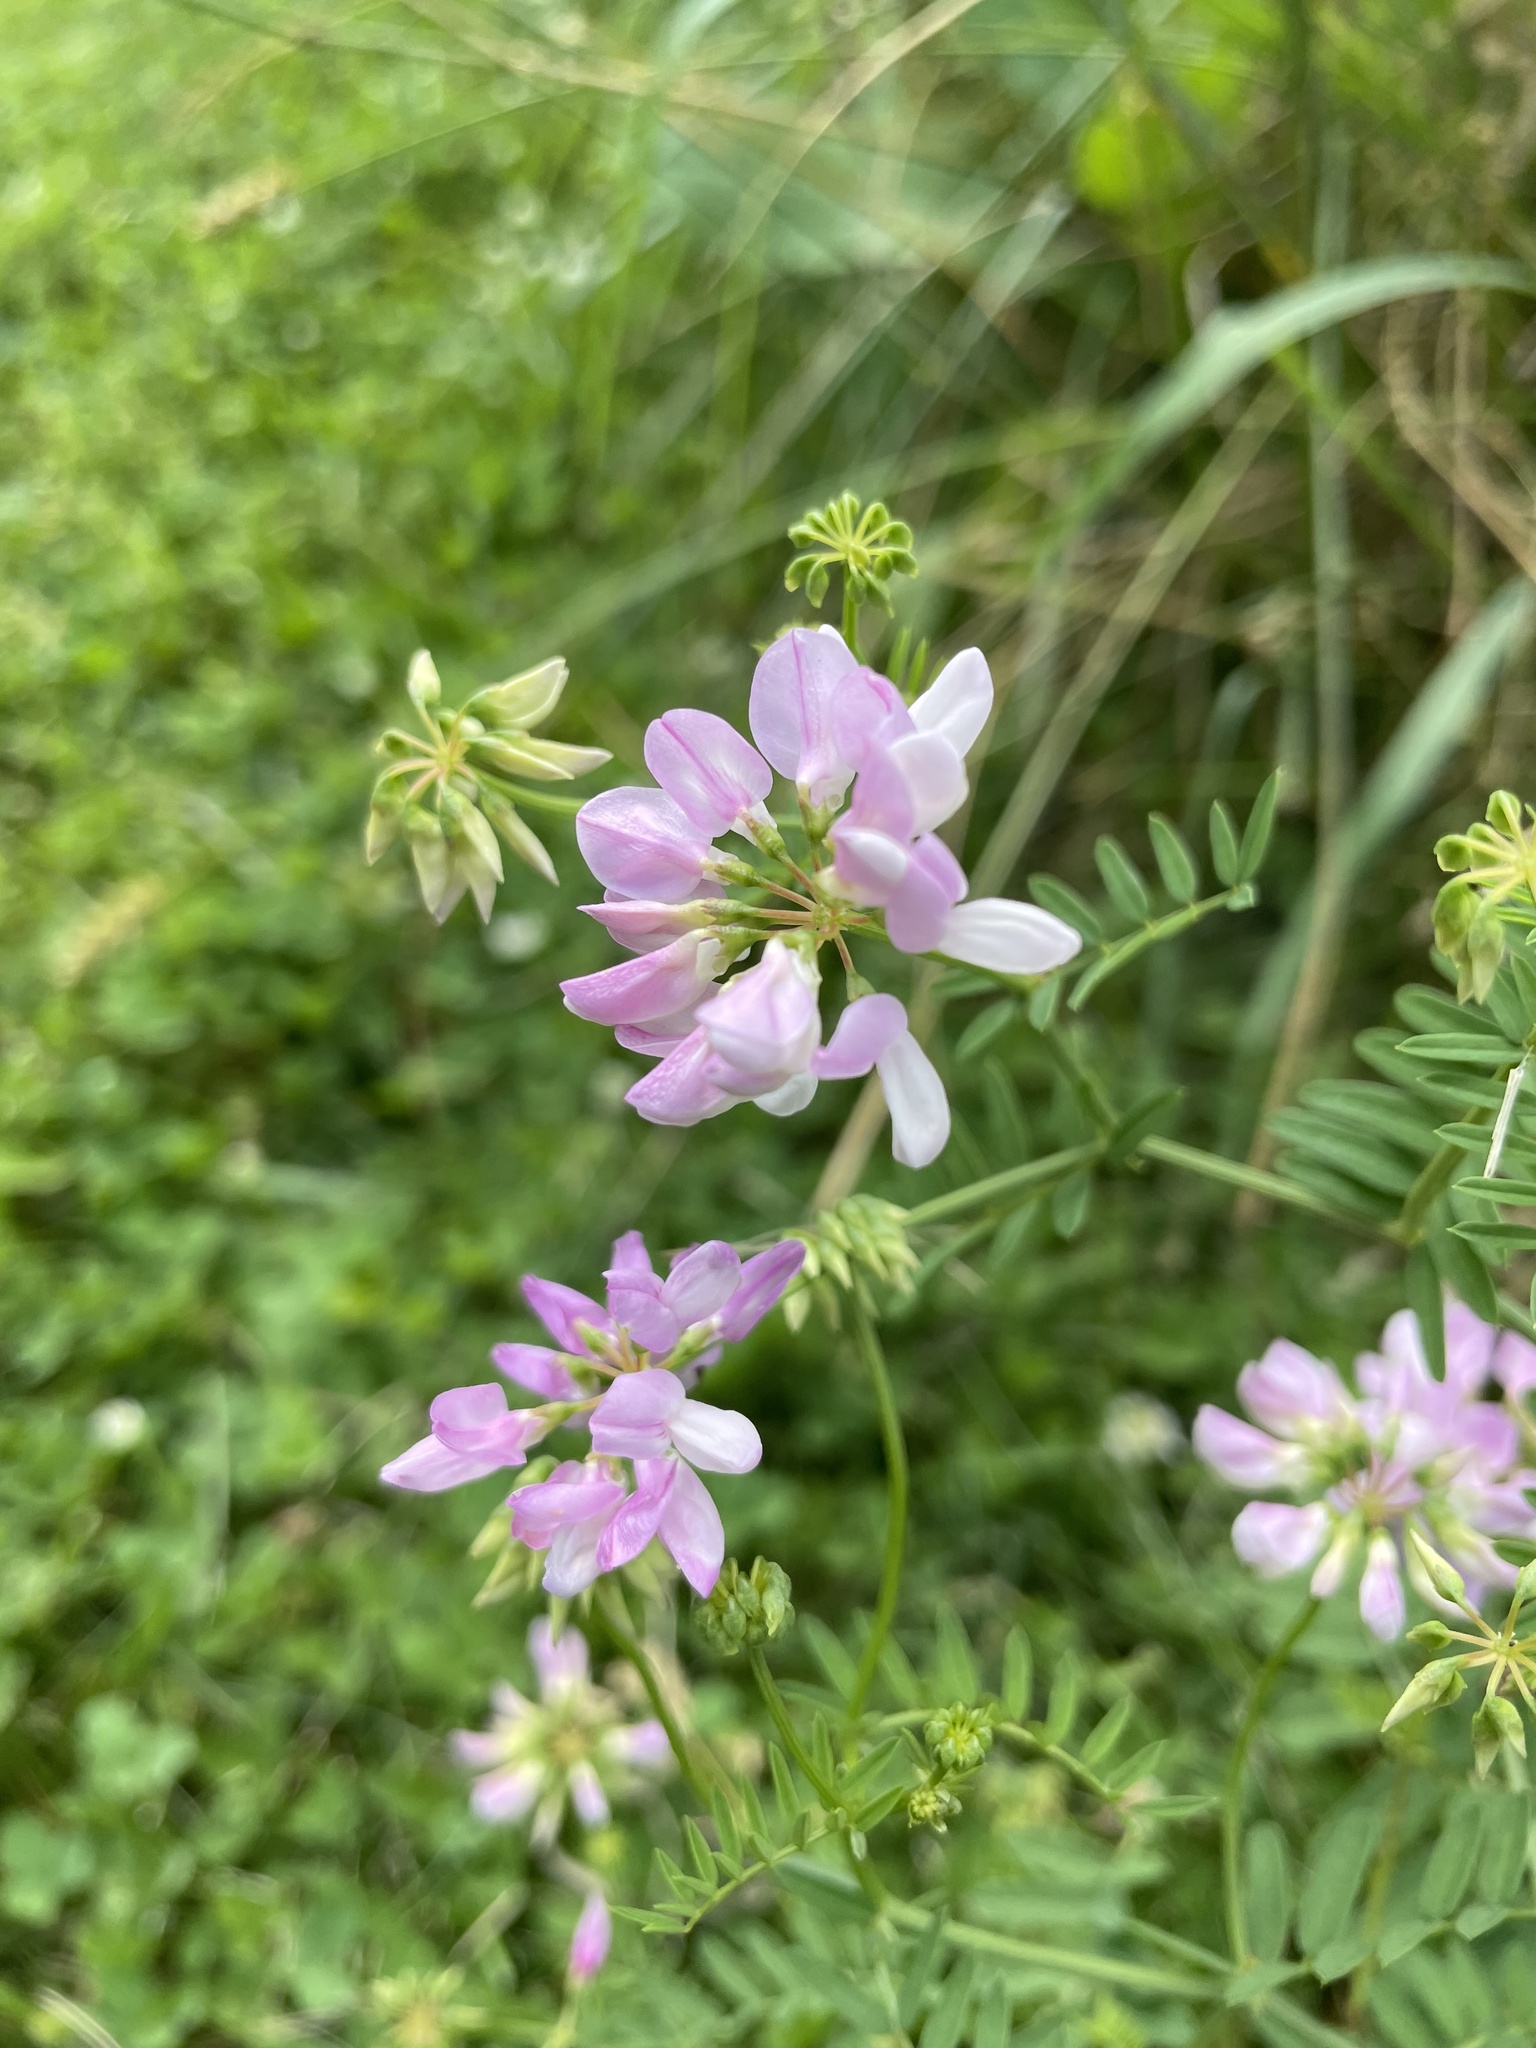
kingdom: Plantae
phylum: Tracheophyta
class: Magnoliopsida
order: Fabales
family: Fabaceae
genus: Coronilla
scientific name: Coronilla varia
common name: Crownvetch
